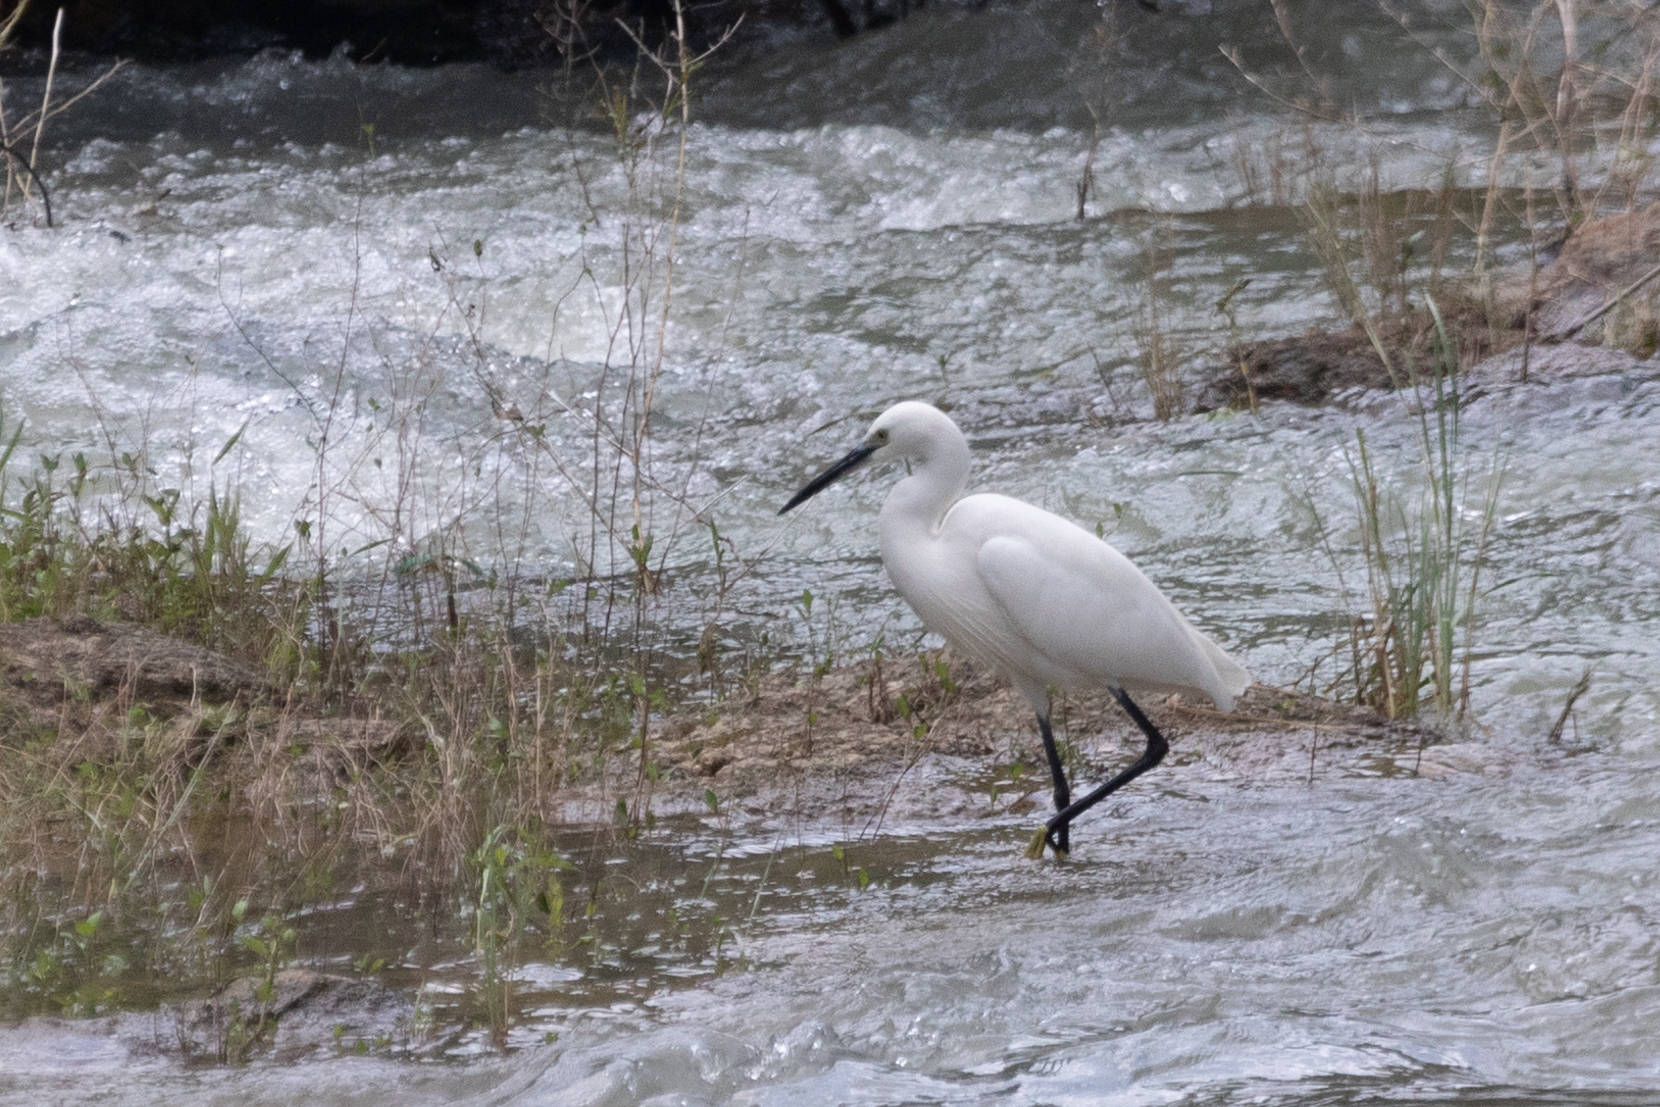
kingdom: Animalia
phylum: Chordata
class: Aves
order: Pelecaniformes
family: Ardeidae
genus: Egretta
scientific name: Egretta garzetta
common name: Little egret
